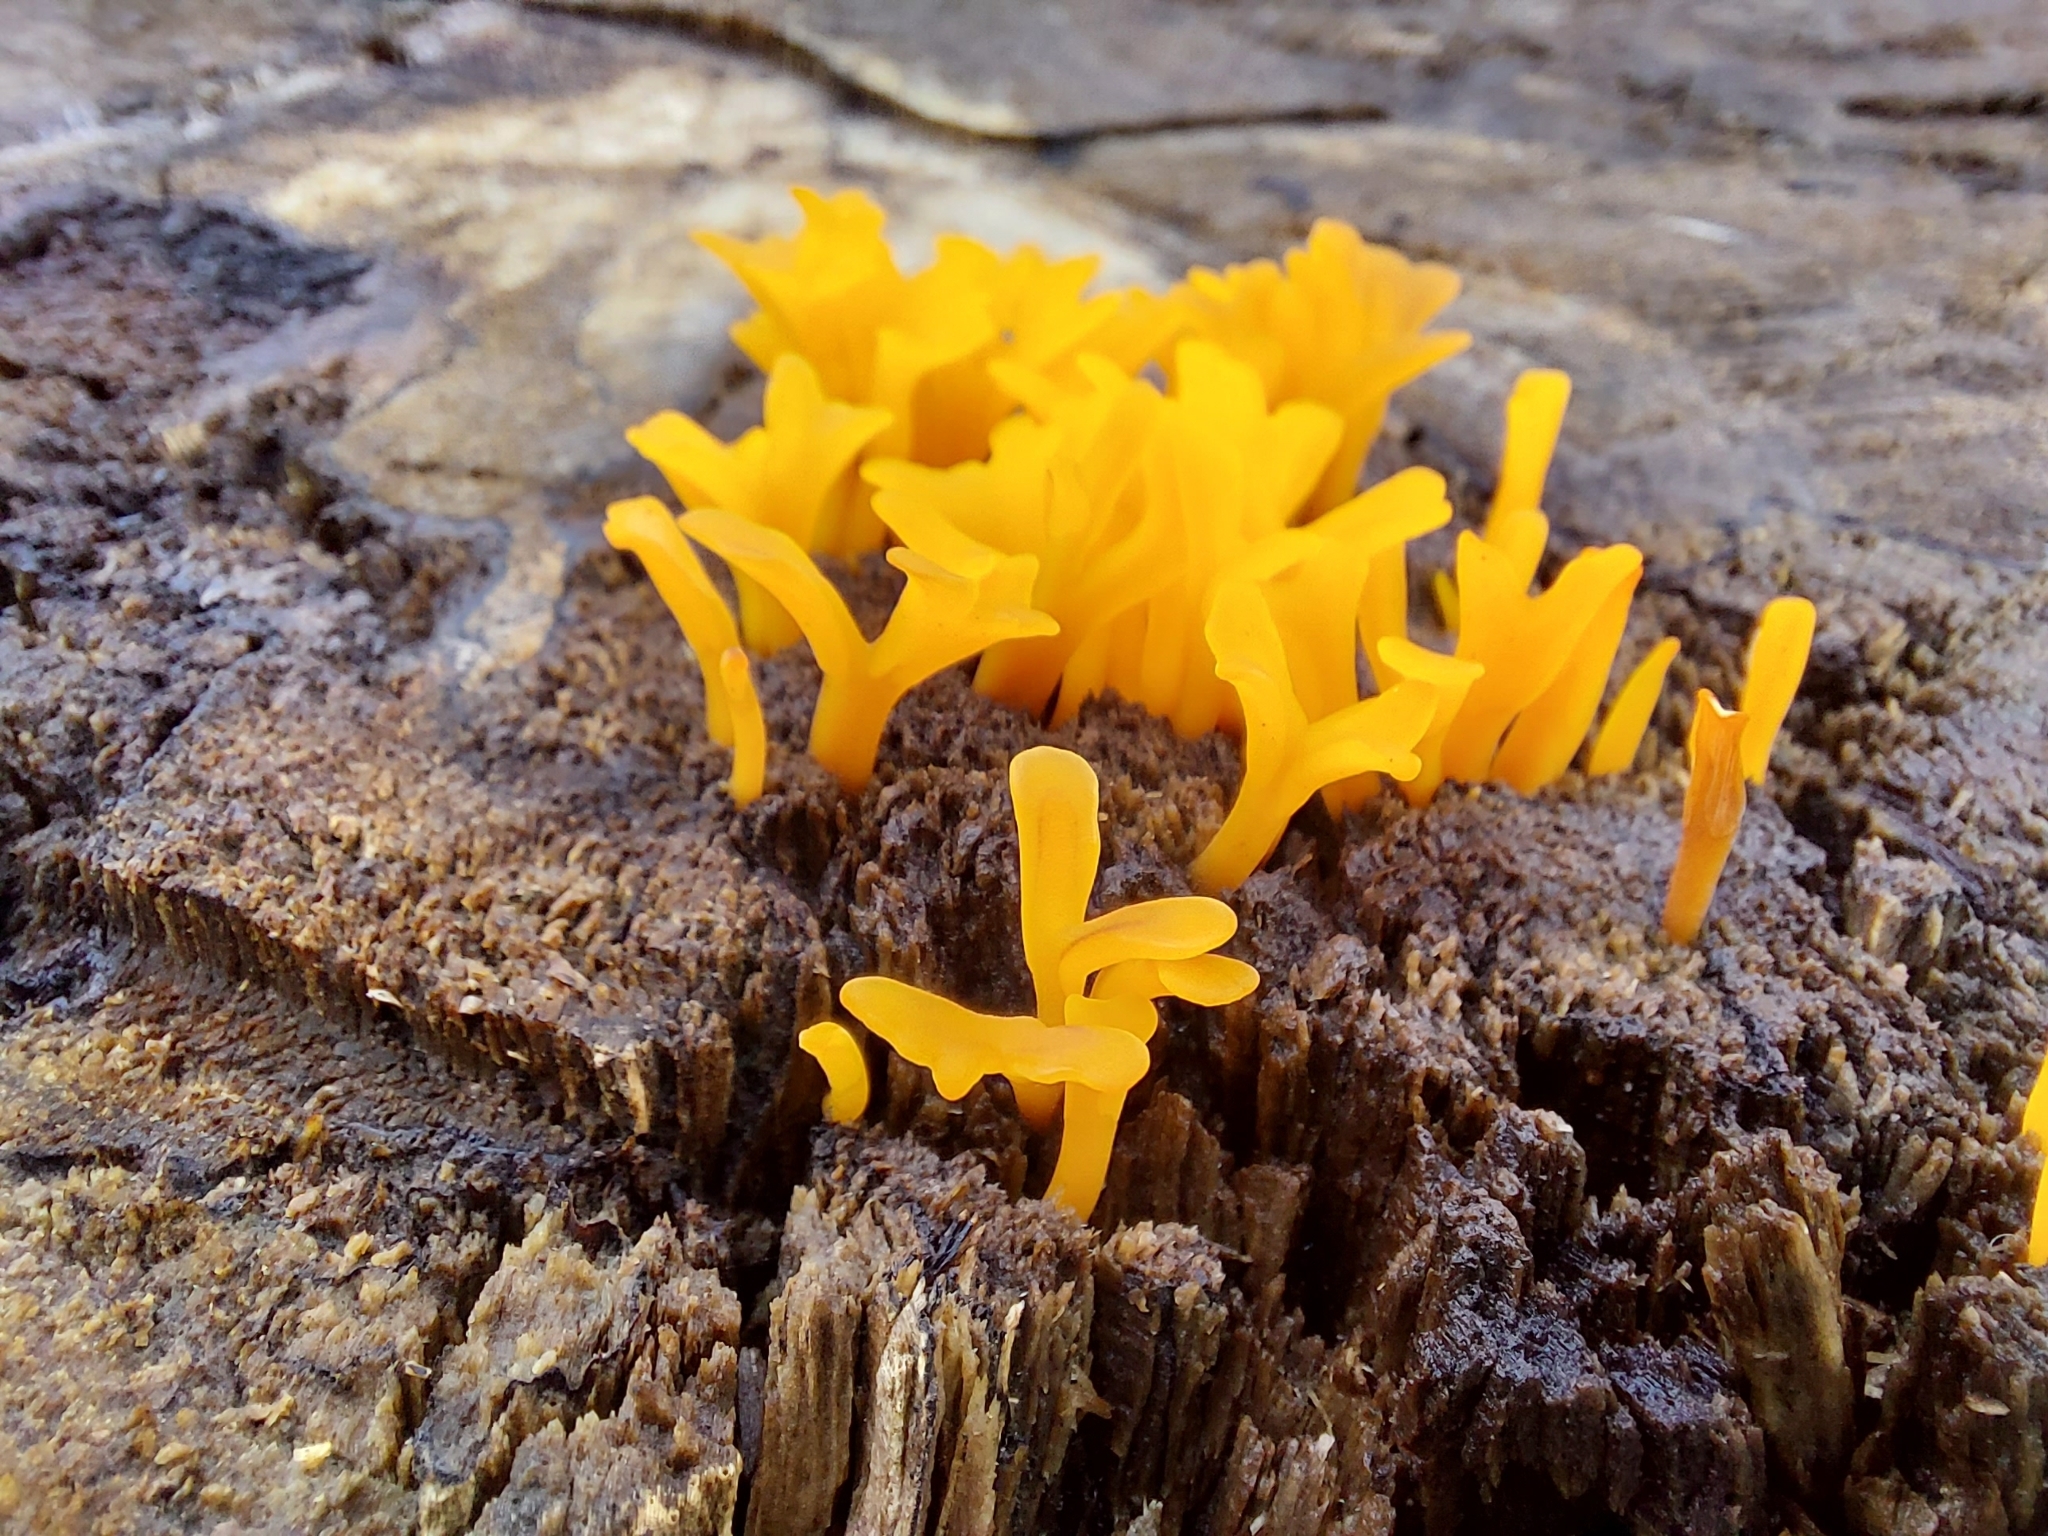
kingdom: Fungi
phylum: Basidiomycota
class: Dacrymycetes
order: Dacrymycetales
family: Dacrymycetaceae
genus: Dacrymyces
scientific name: Dacrymyces spathularius
